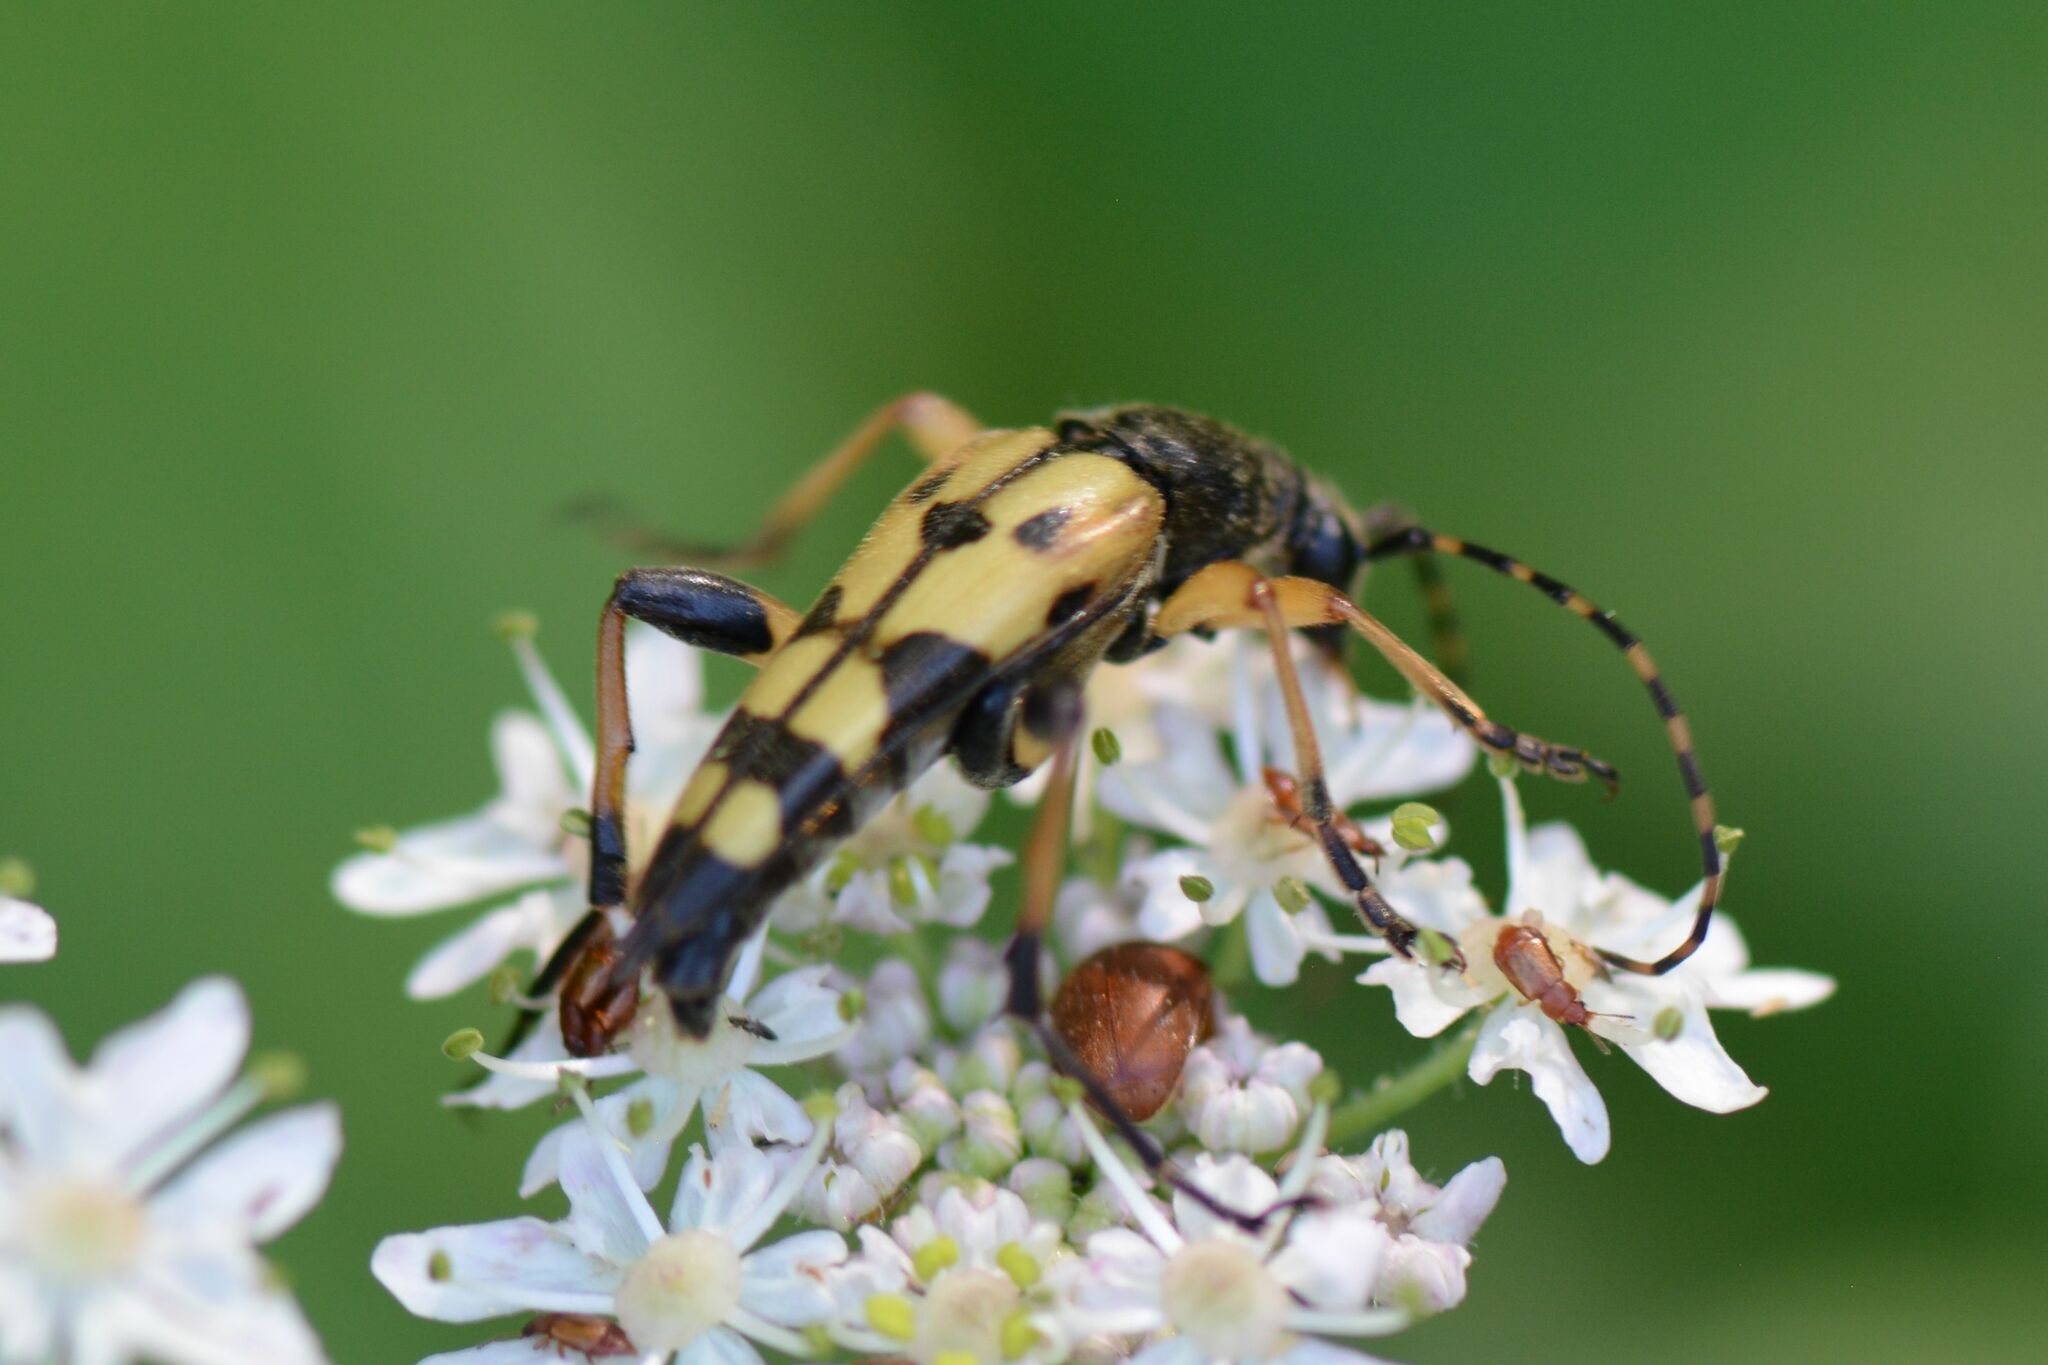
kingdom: Animalia
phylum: Arthropoda
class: Insecta
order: Coleoptera
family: Cerambycidae
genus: Rutpela
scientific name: Rutpela maculata
